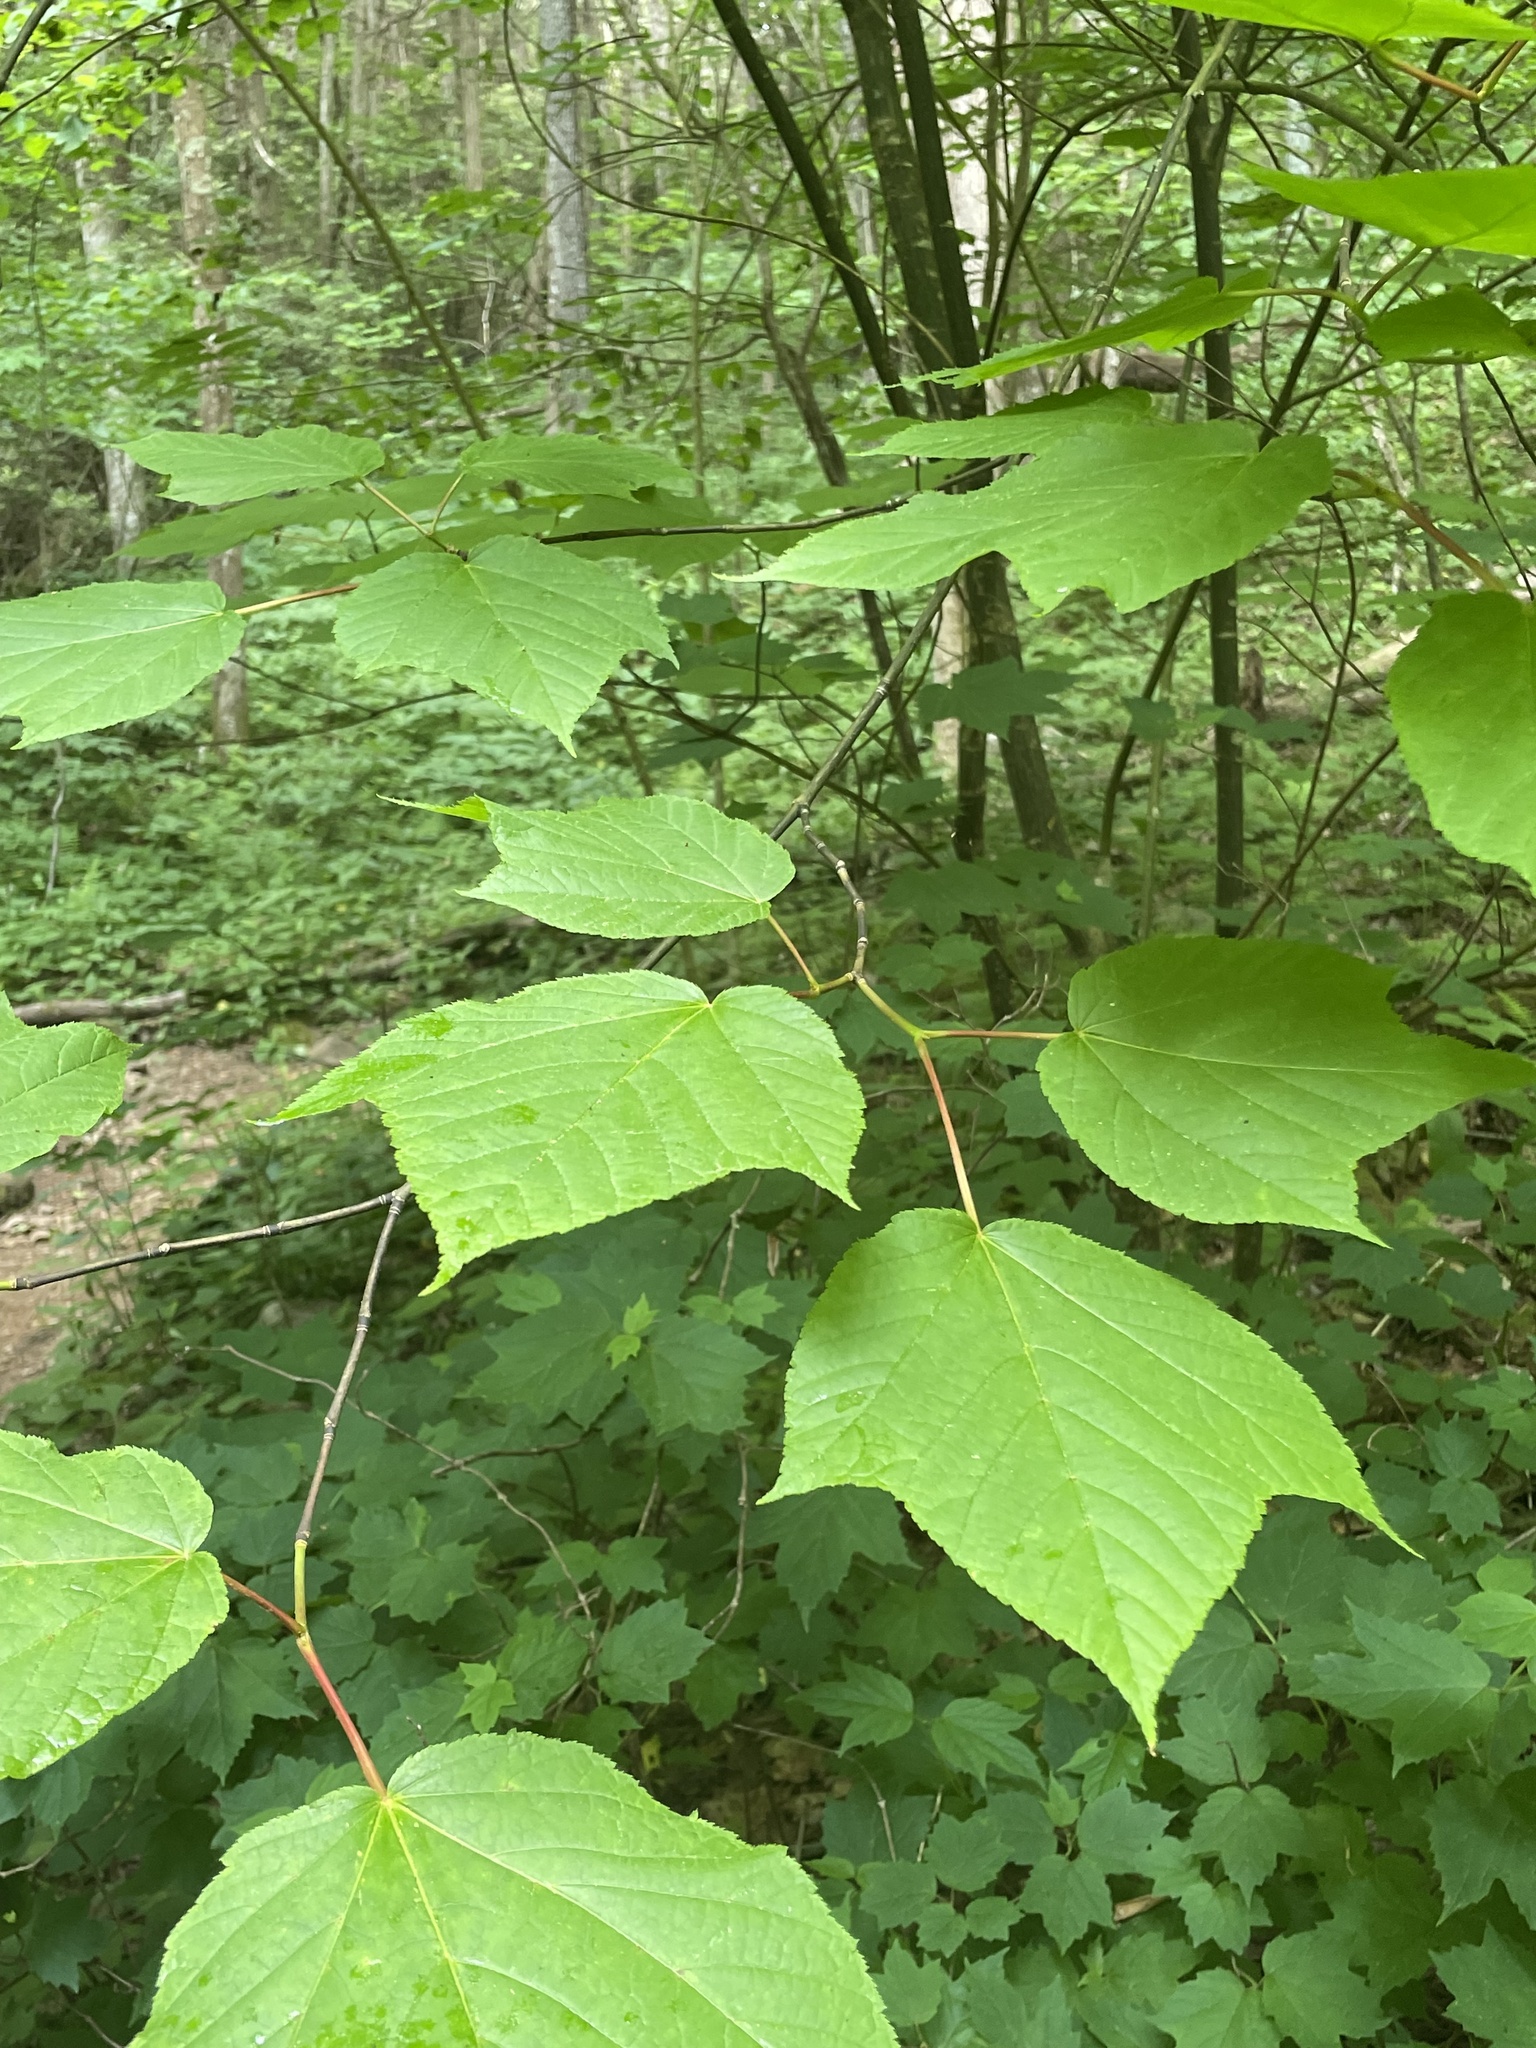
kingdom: Plantae
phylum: Tracheophyta
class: Magnoliopsida
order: Sapindales
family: Sapindaceae
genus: Acer
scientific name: Acer pensylvanicum
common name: Moosewood
